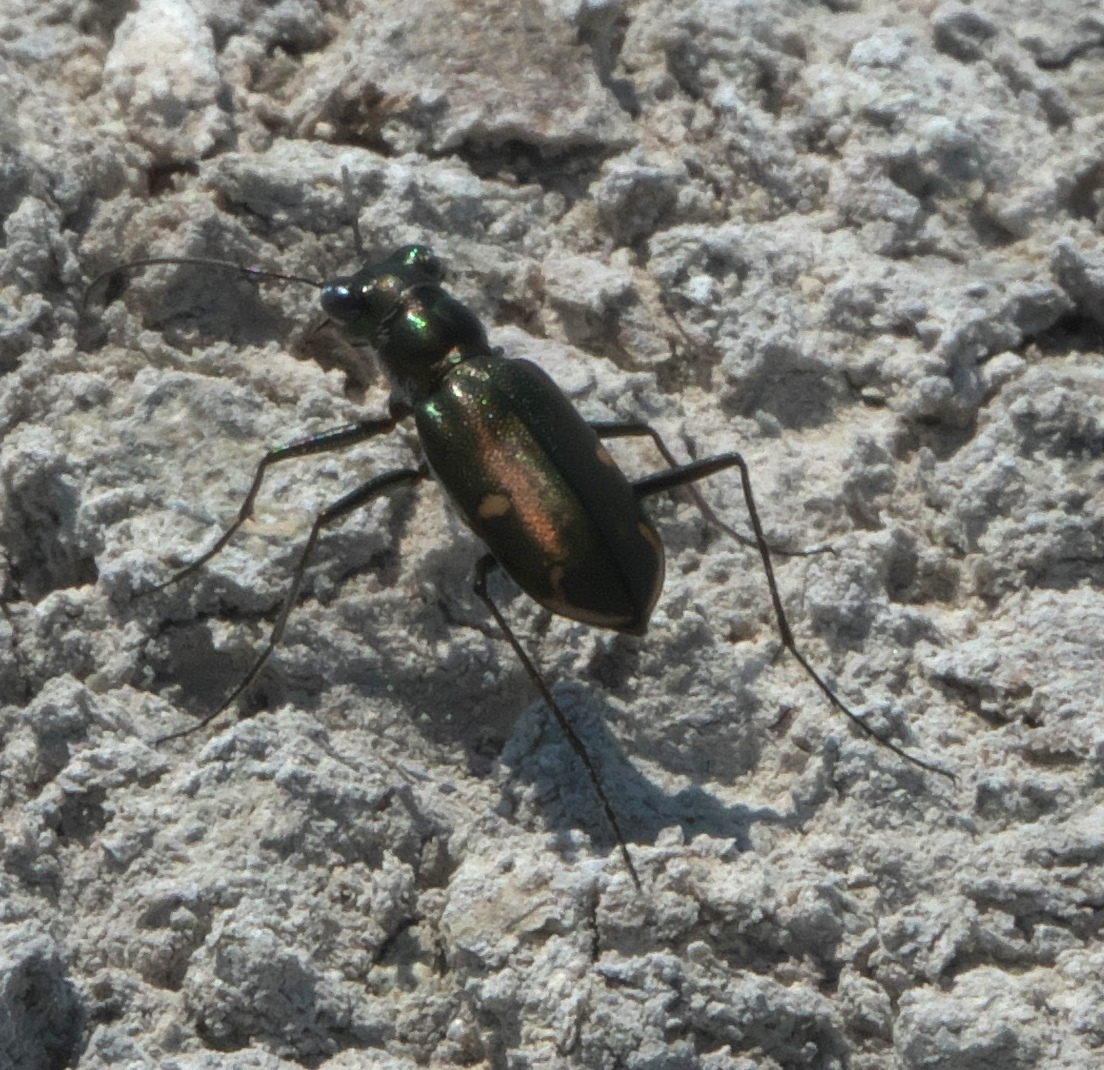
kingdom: Animalia
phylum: Arthropoda
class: Insecta
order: Coleoptera
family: Carabidae
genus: Eunota
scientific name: Eunota severa
